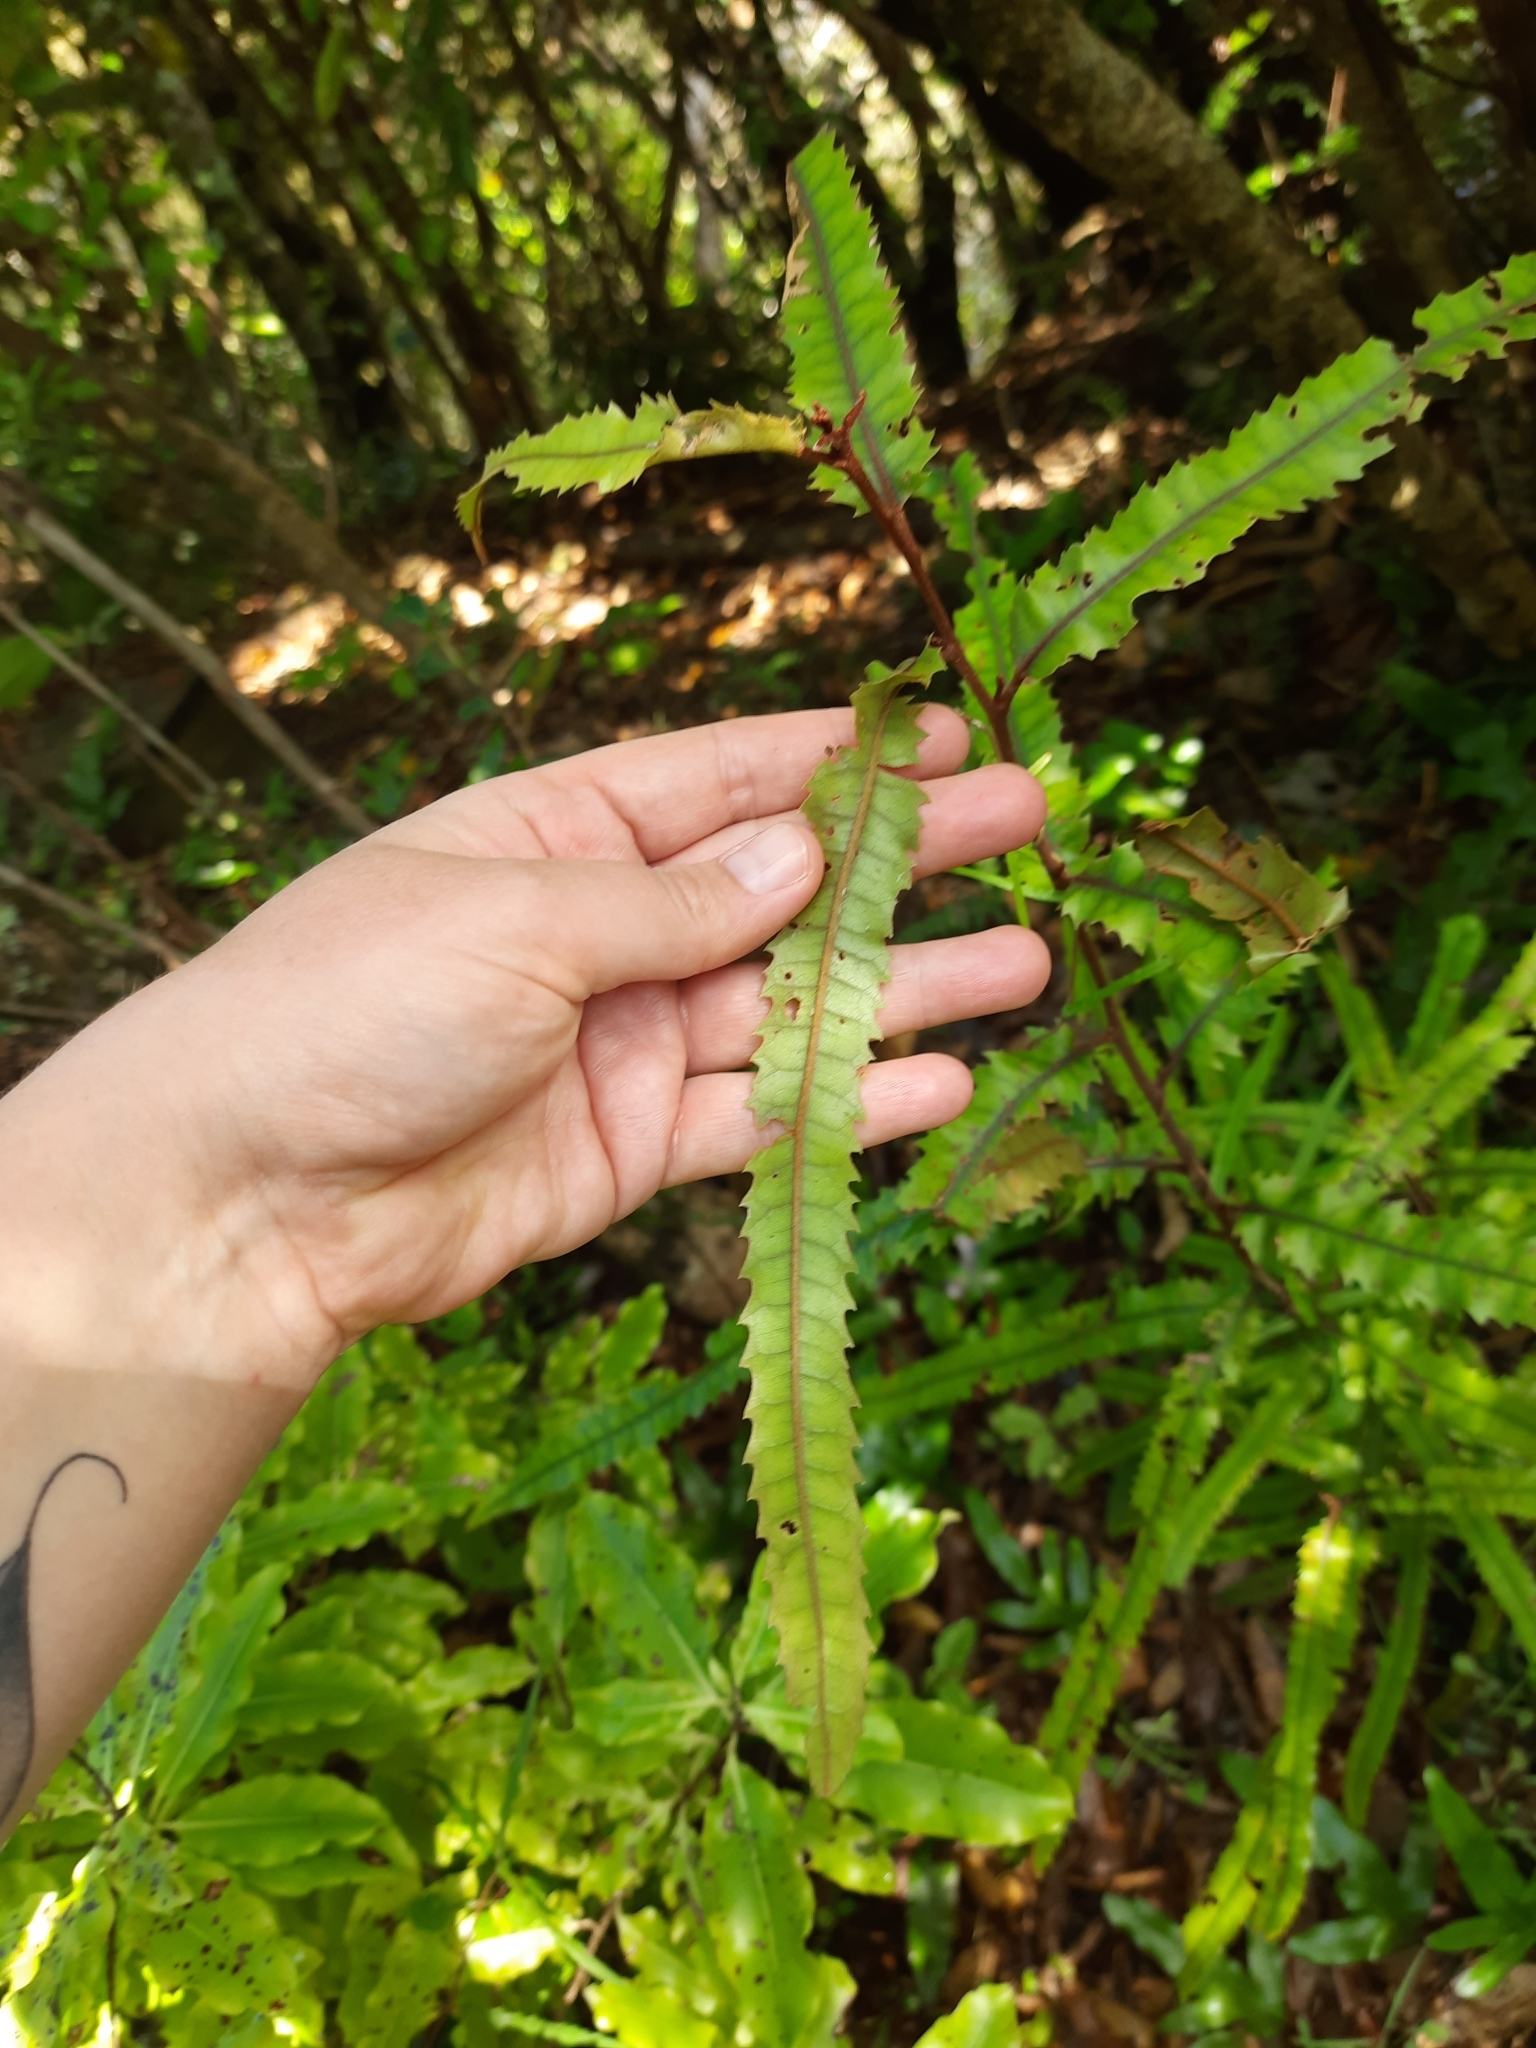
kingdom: Plantae
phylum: Tracheophyta
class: Magnoliopsida
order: Proteales
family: Proteaceae
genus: Knightia
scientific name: Knightia excelsa
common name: New zealand-honeysuckle
